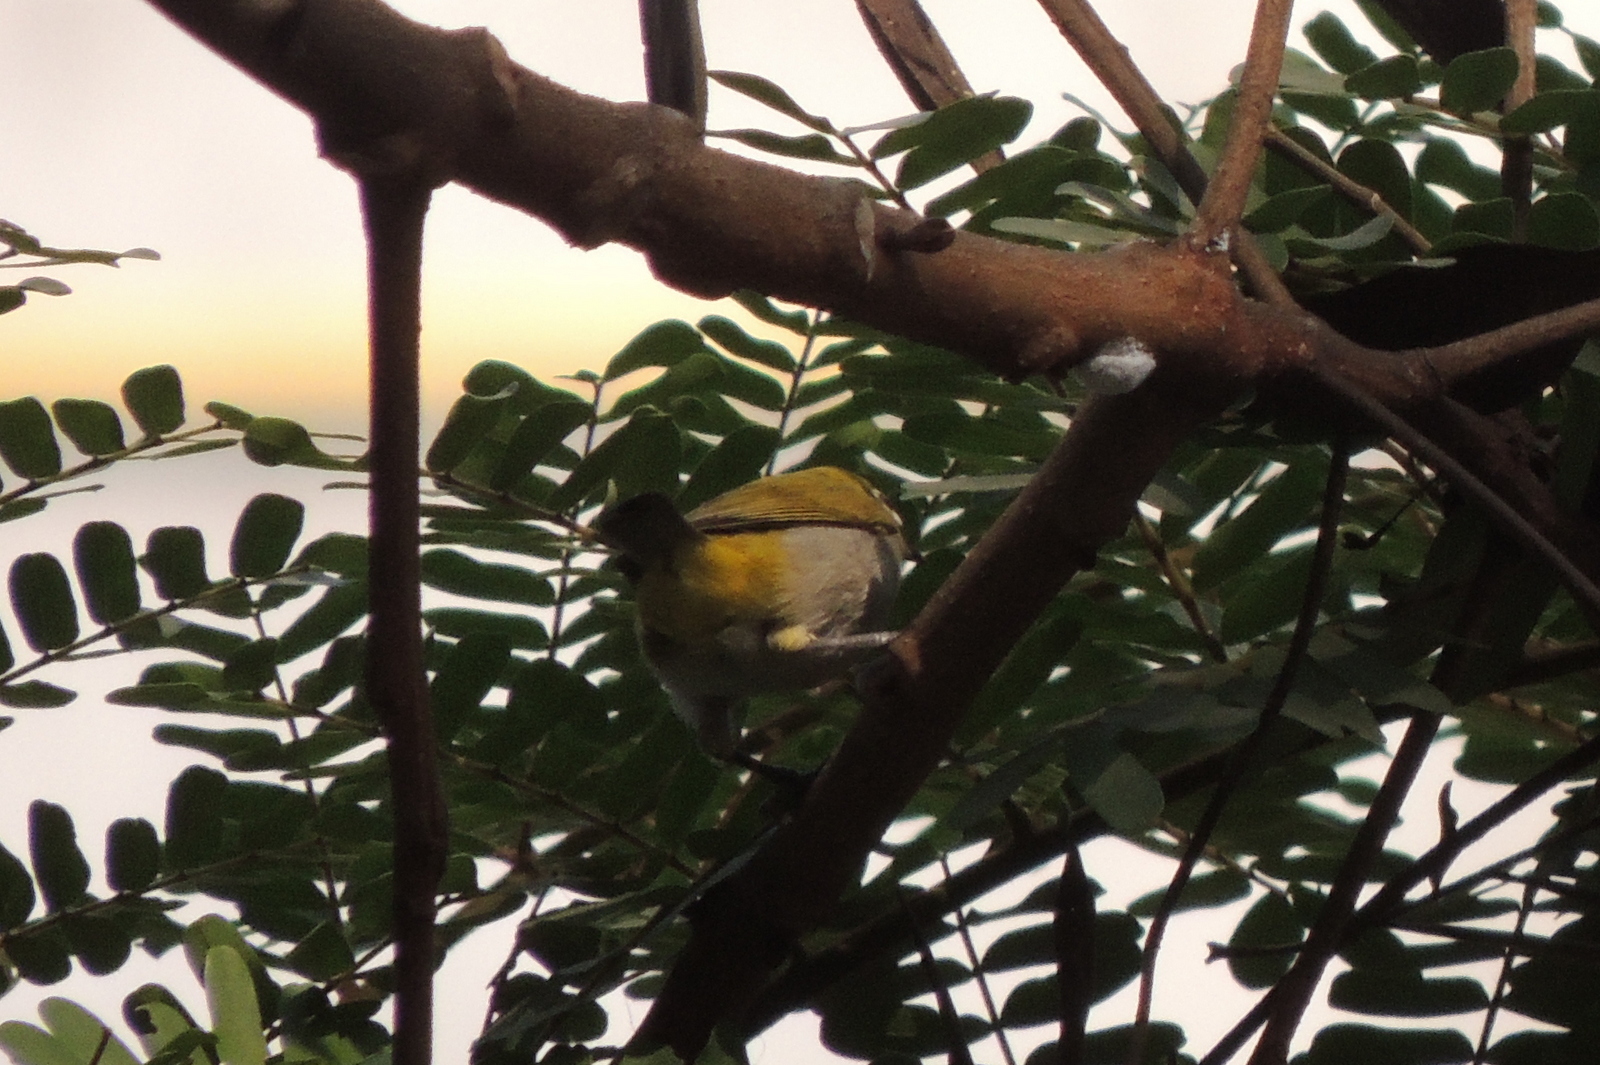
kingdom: Animalia
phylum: Chordata
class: Aves
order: Passeriformes
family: Zosteropidae
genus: Zosterops
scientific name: Zosterops palpebrosus
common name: Oriental white-eye
